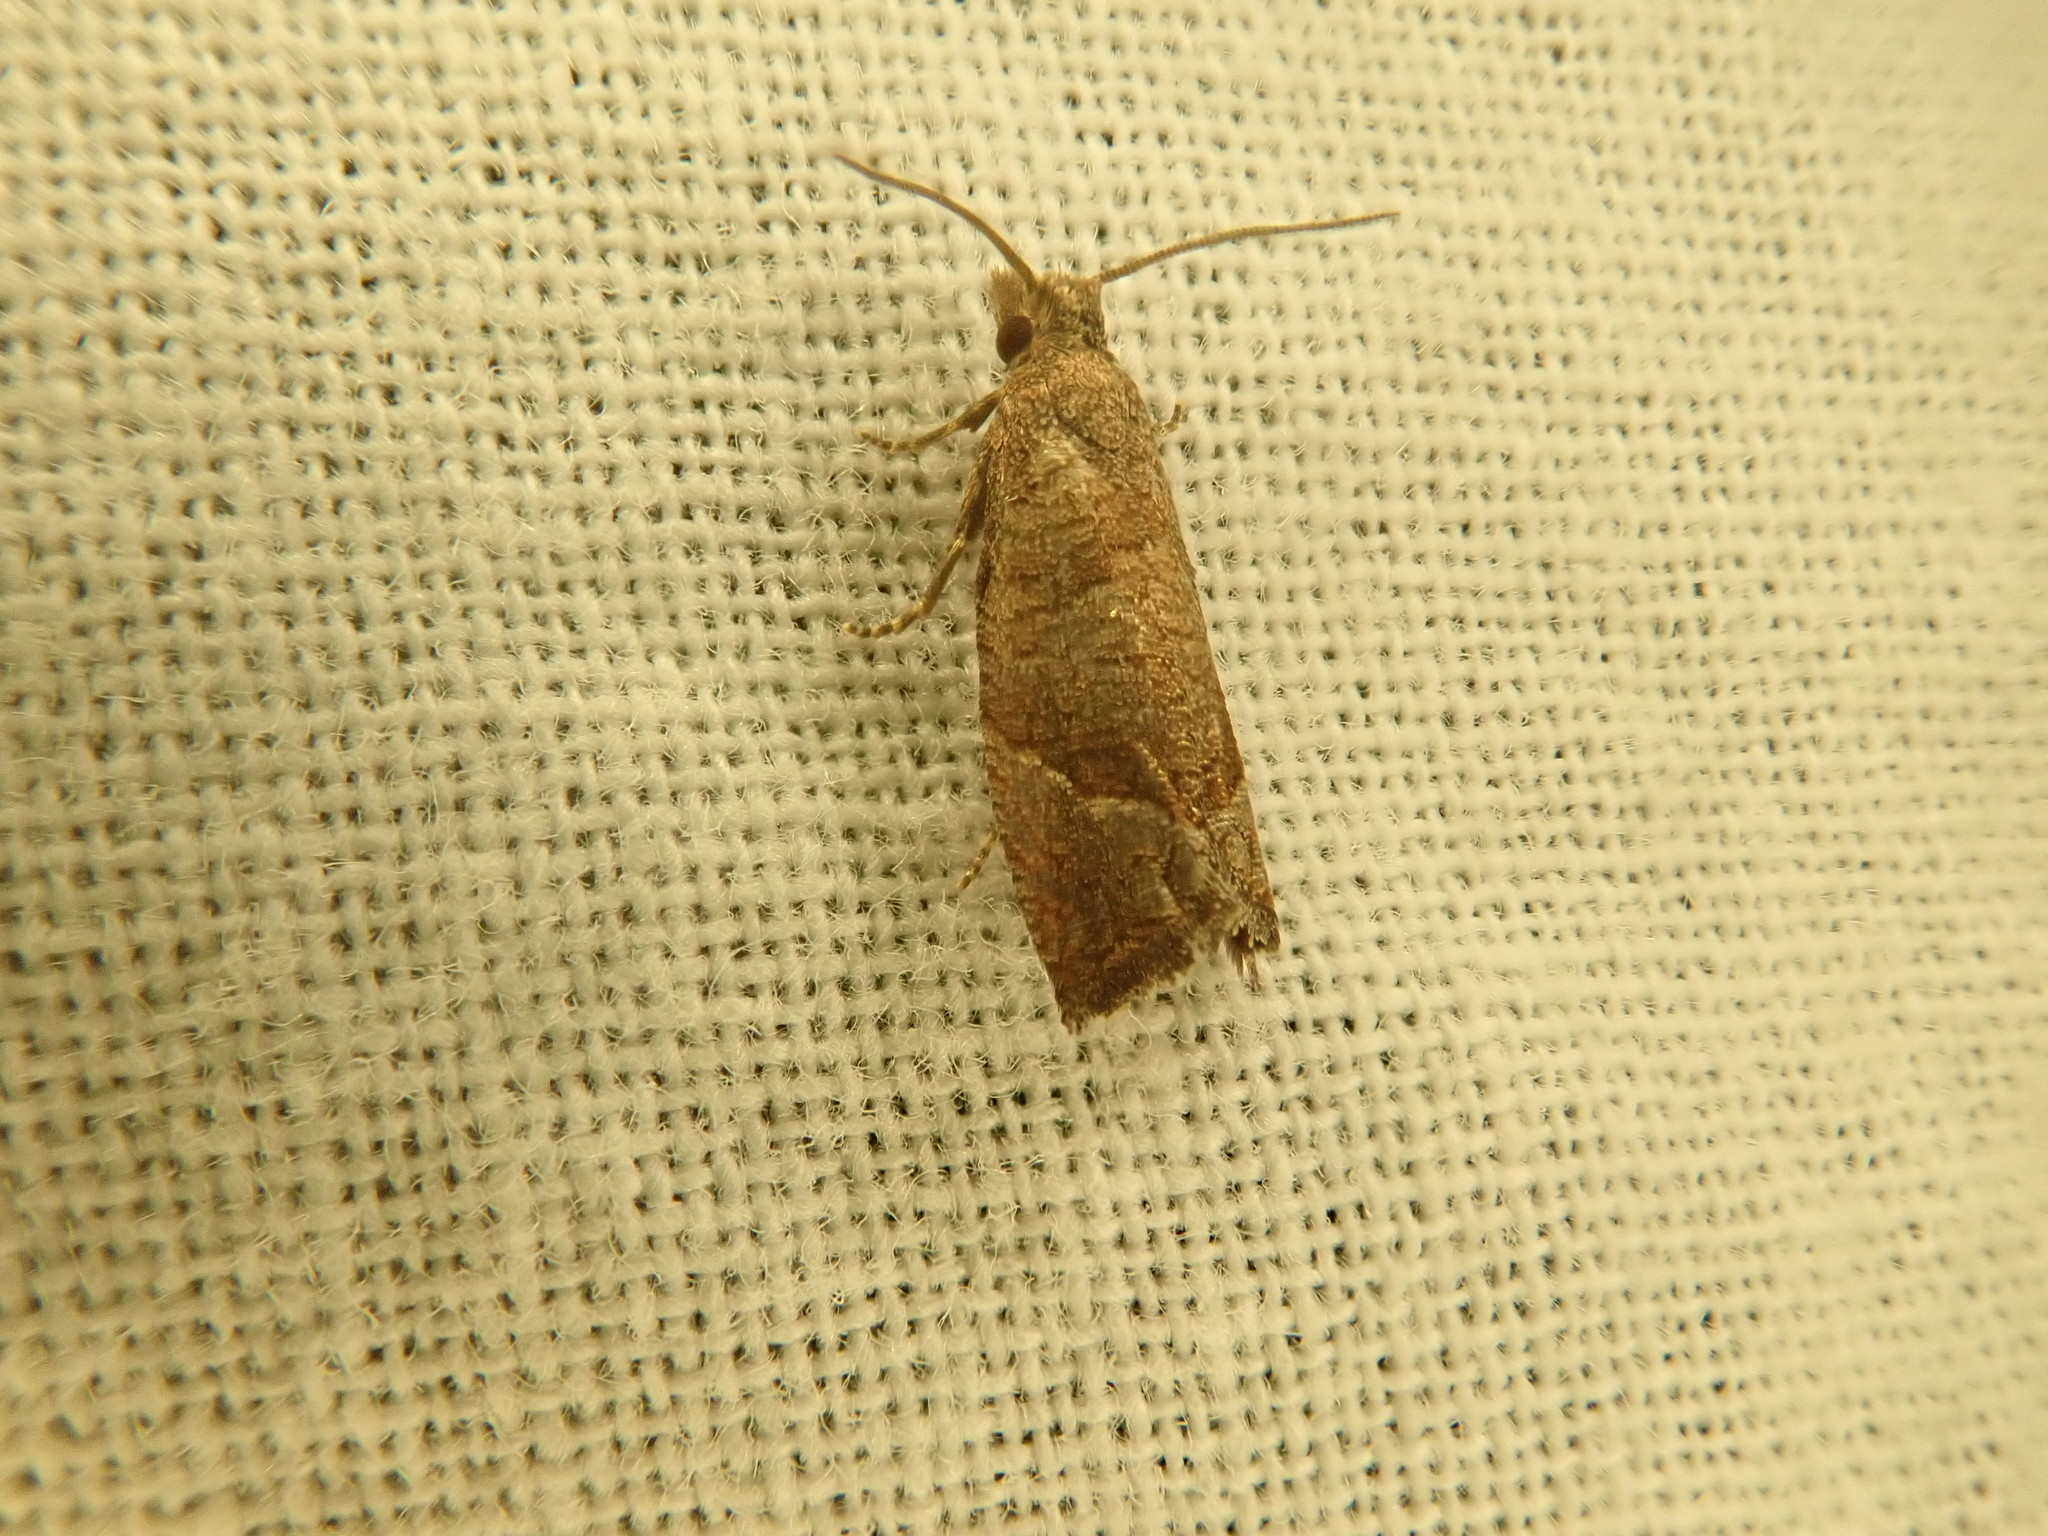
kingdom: Animalia
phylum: Arthropoda
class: Insecta
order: Lepidoptera
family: Tortricidae
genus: Pelochrista
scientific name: Pelochrista derelicta
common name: Derelict pelochrista moth
